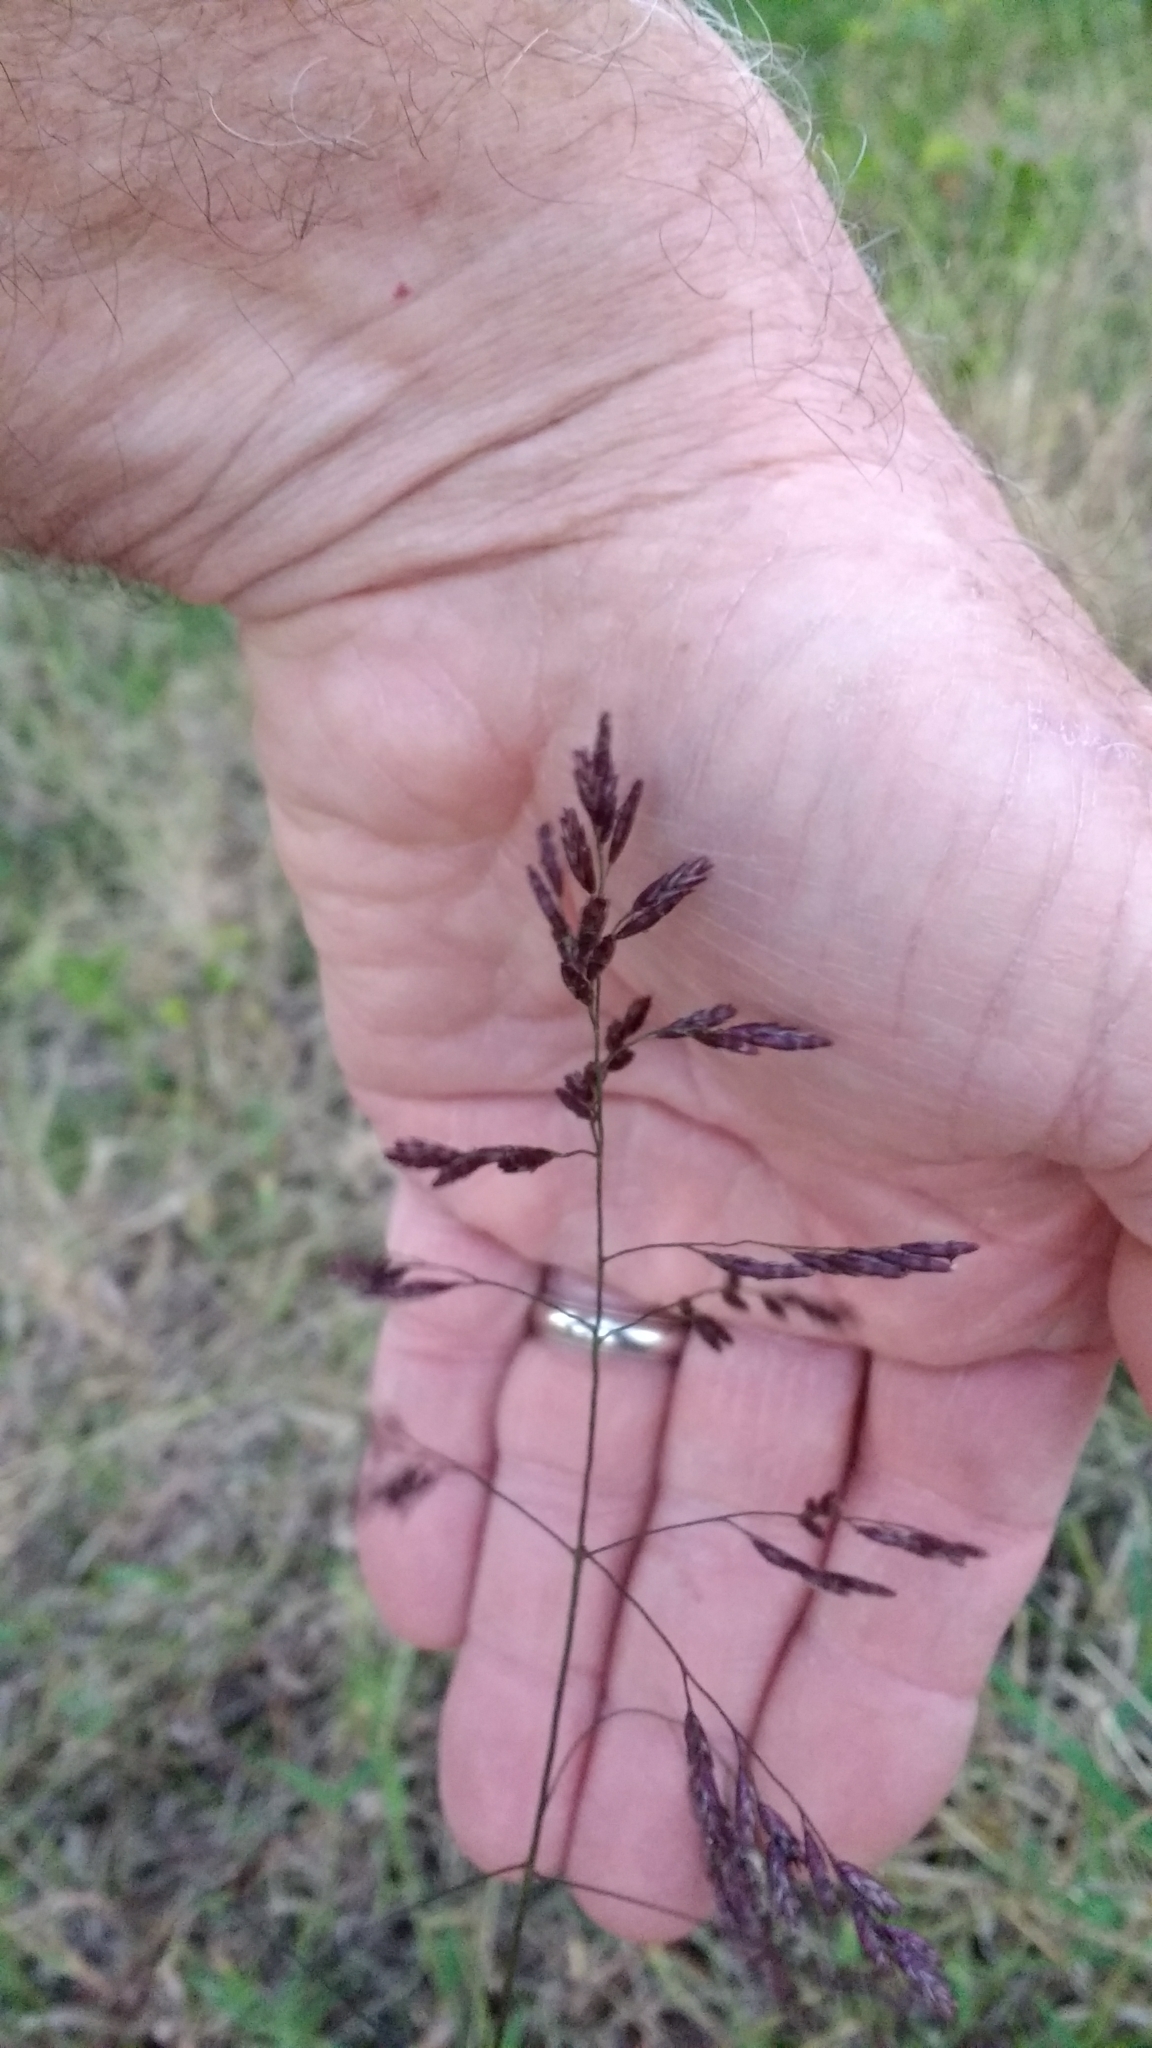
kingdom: Plantae
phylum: Tracheophyta
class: Liliopsida
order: Poales
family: Poaceae
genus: Tridens
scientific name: Tridens flavus
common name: Purpletop
